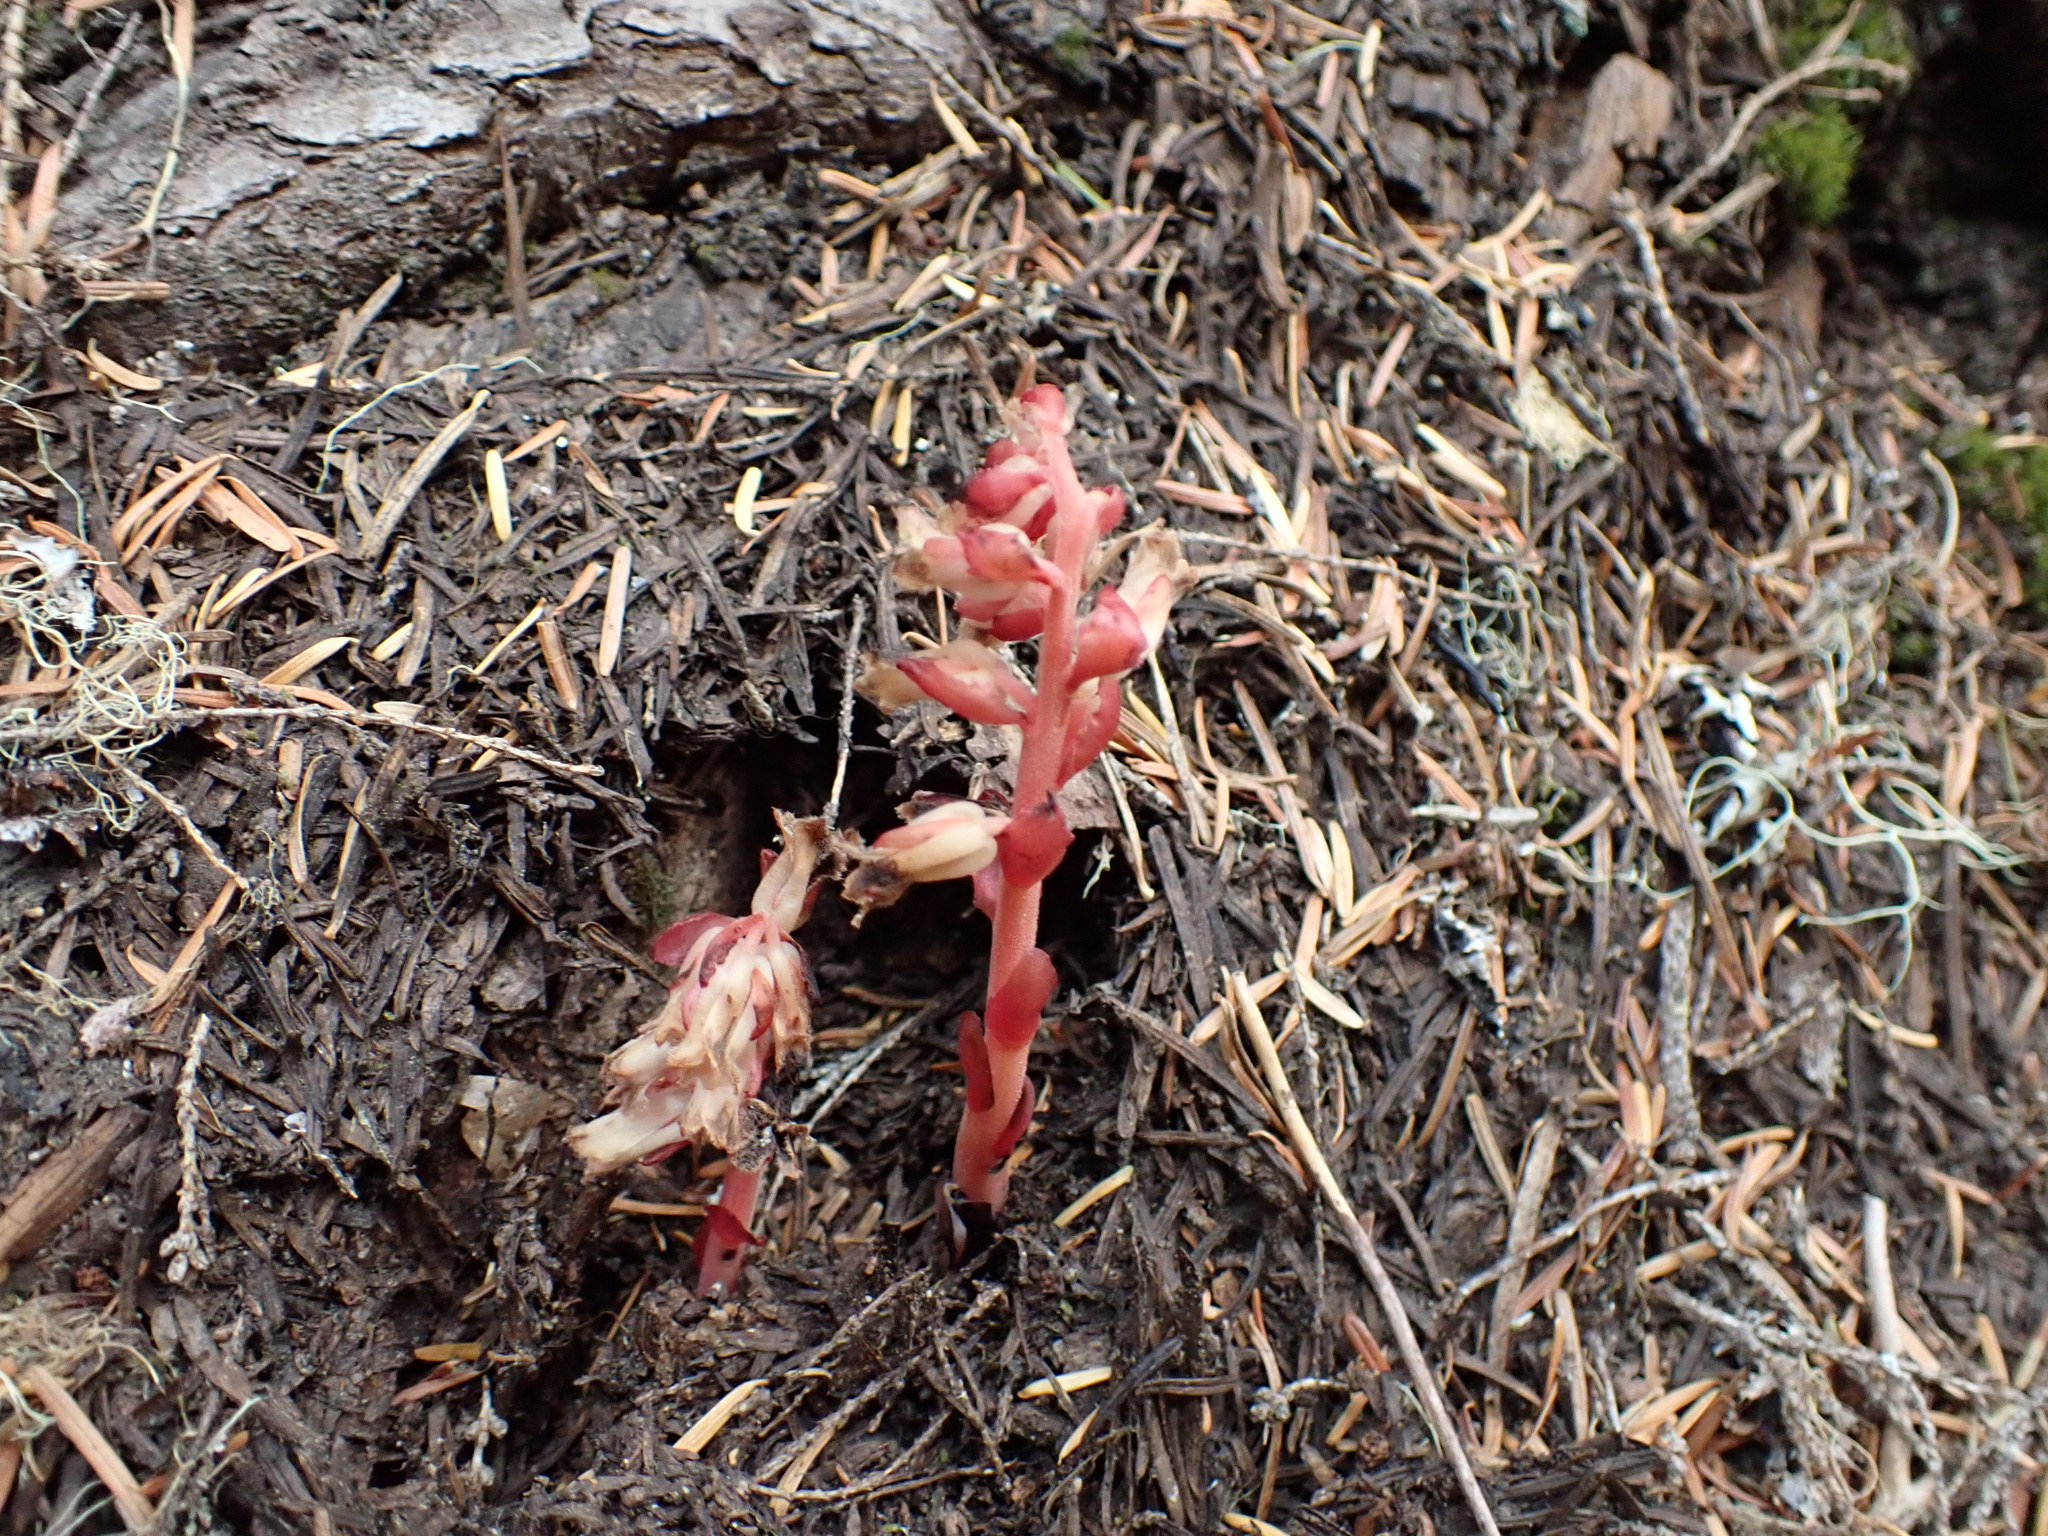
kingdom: Plantae
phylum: Tracheophyta
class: Magnoliopsida
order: Ericales
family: Ericaceae
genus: Hypopitys
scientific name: Hypopitys monotropa
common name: Yellow bird's-nest
